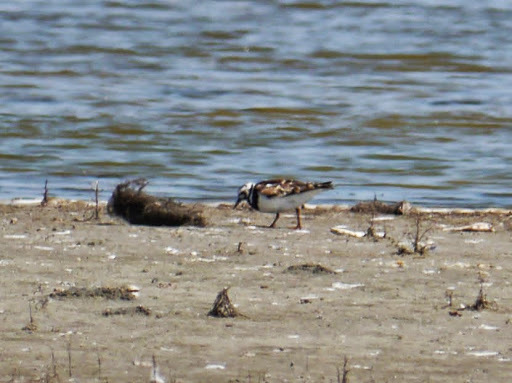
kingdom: Animalia
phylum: Chordata
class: Aves
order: Charadriiformes
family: Scolopacidae
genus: Arenaria
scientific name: Arenaria interpres
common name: Ruddy turnstone
